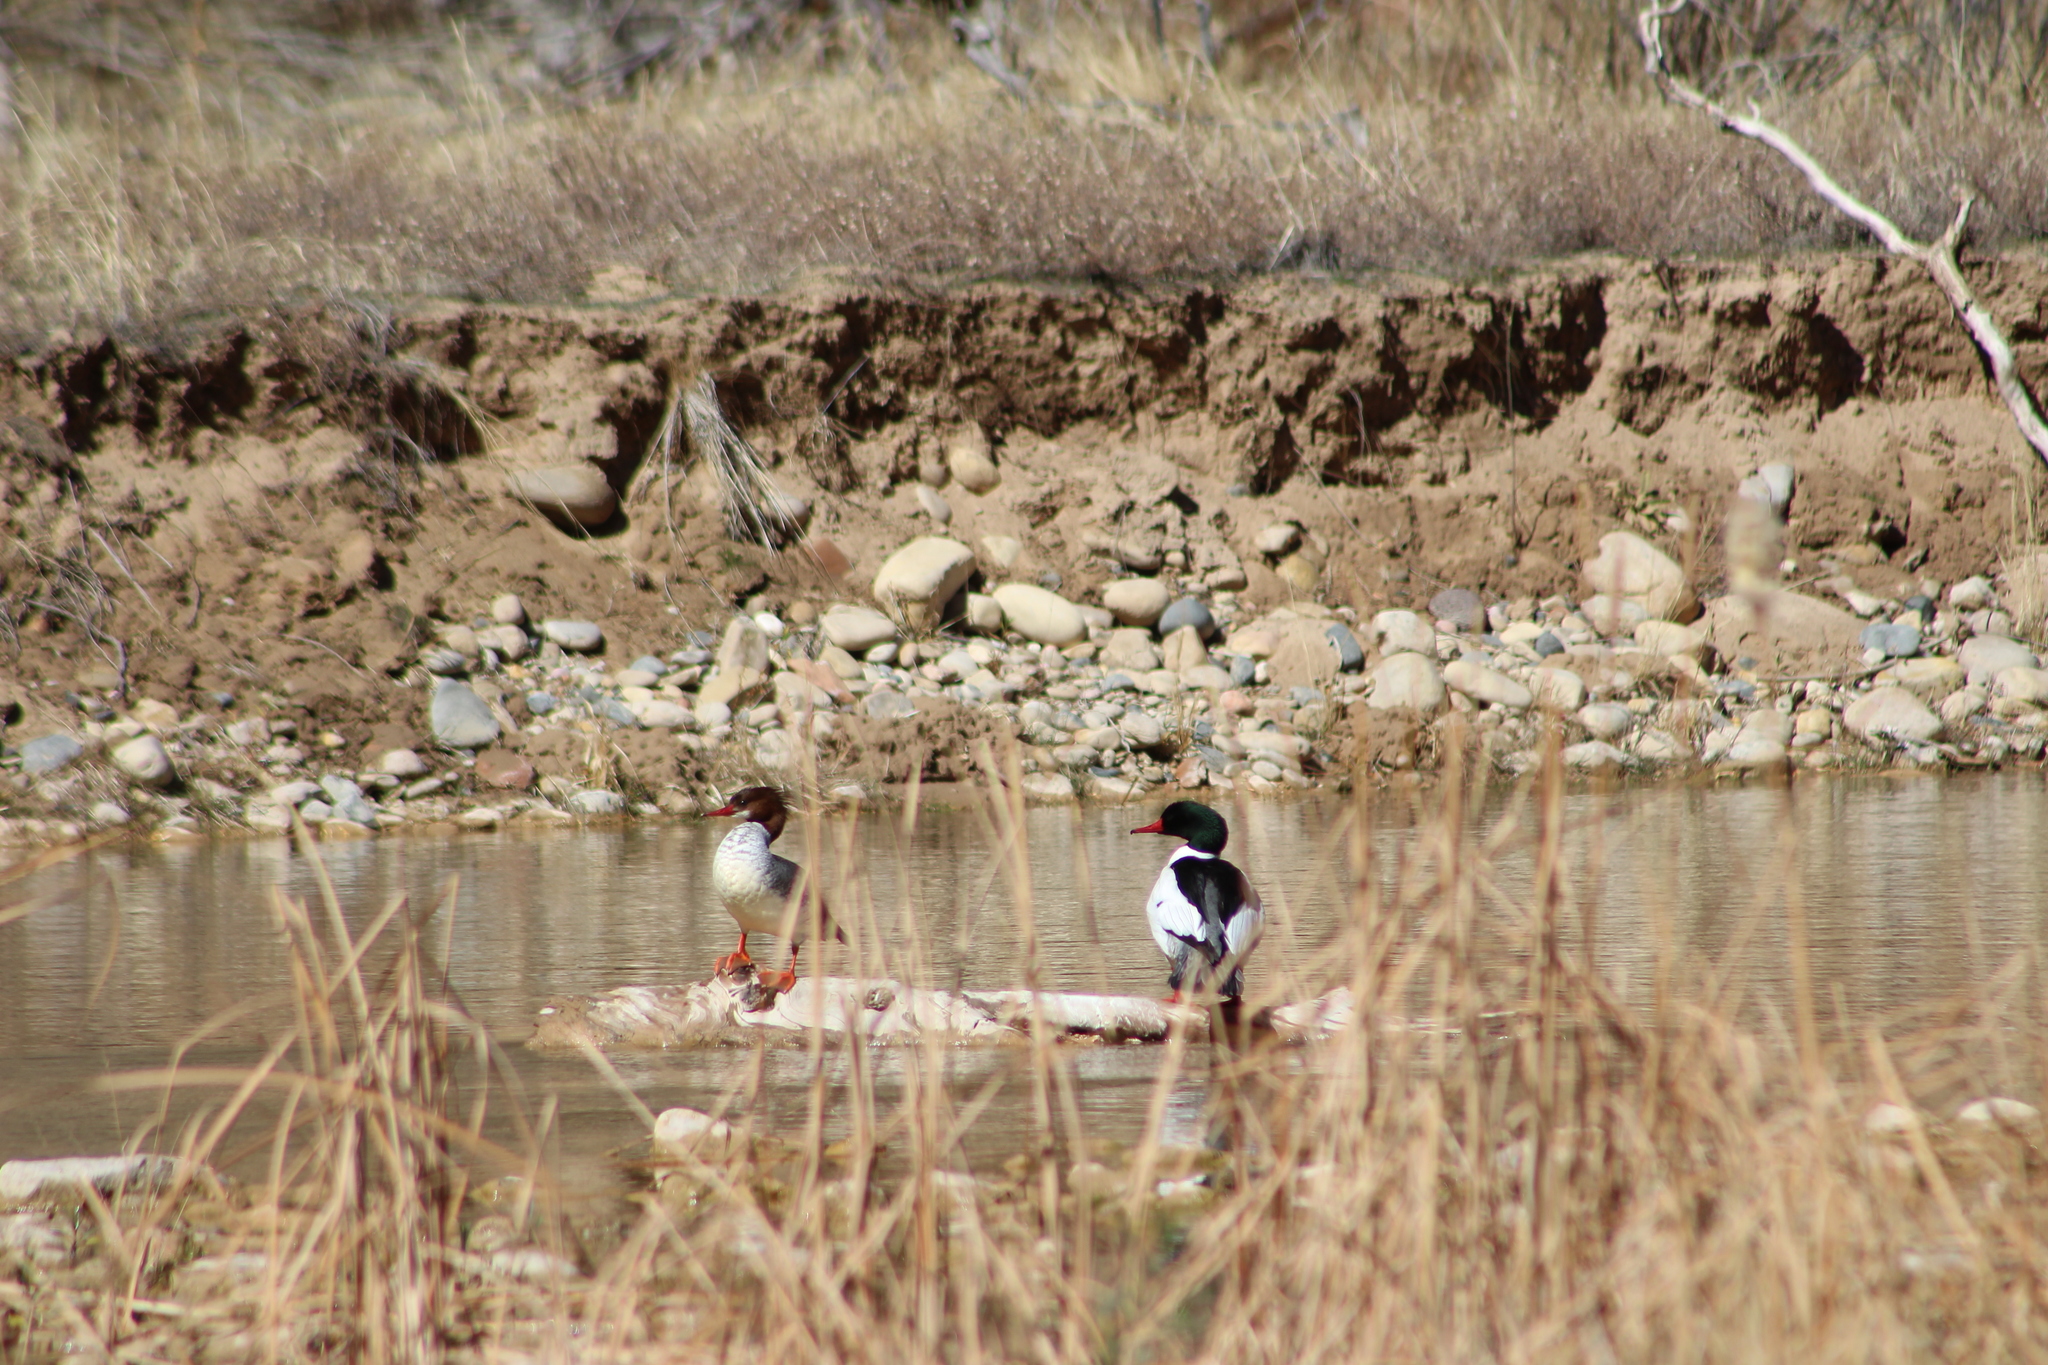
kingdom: Animalia
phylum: Chordata
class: Aves
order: Anseriformes
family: Anatidae
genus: Mergus
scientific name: Mergus merganser
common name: Common merganser
